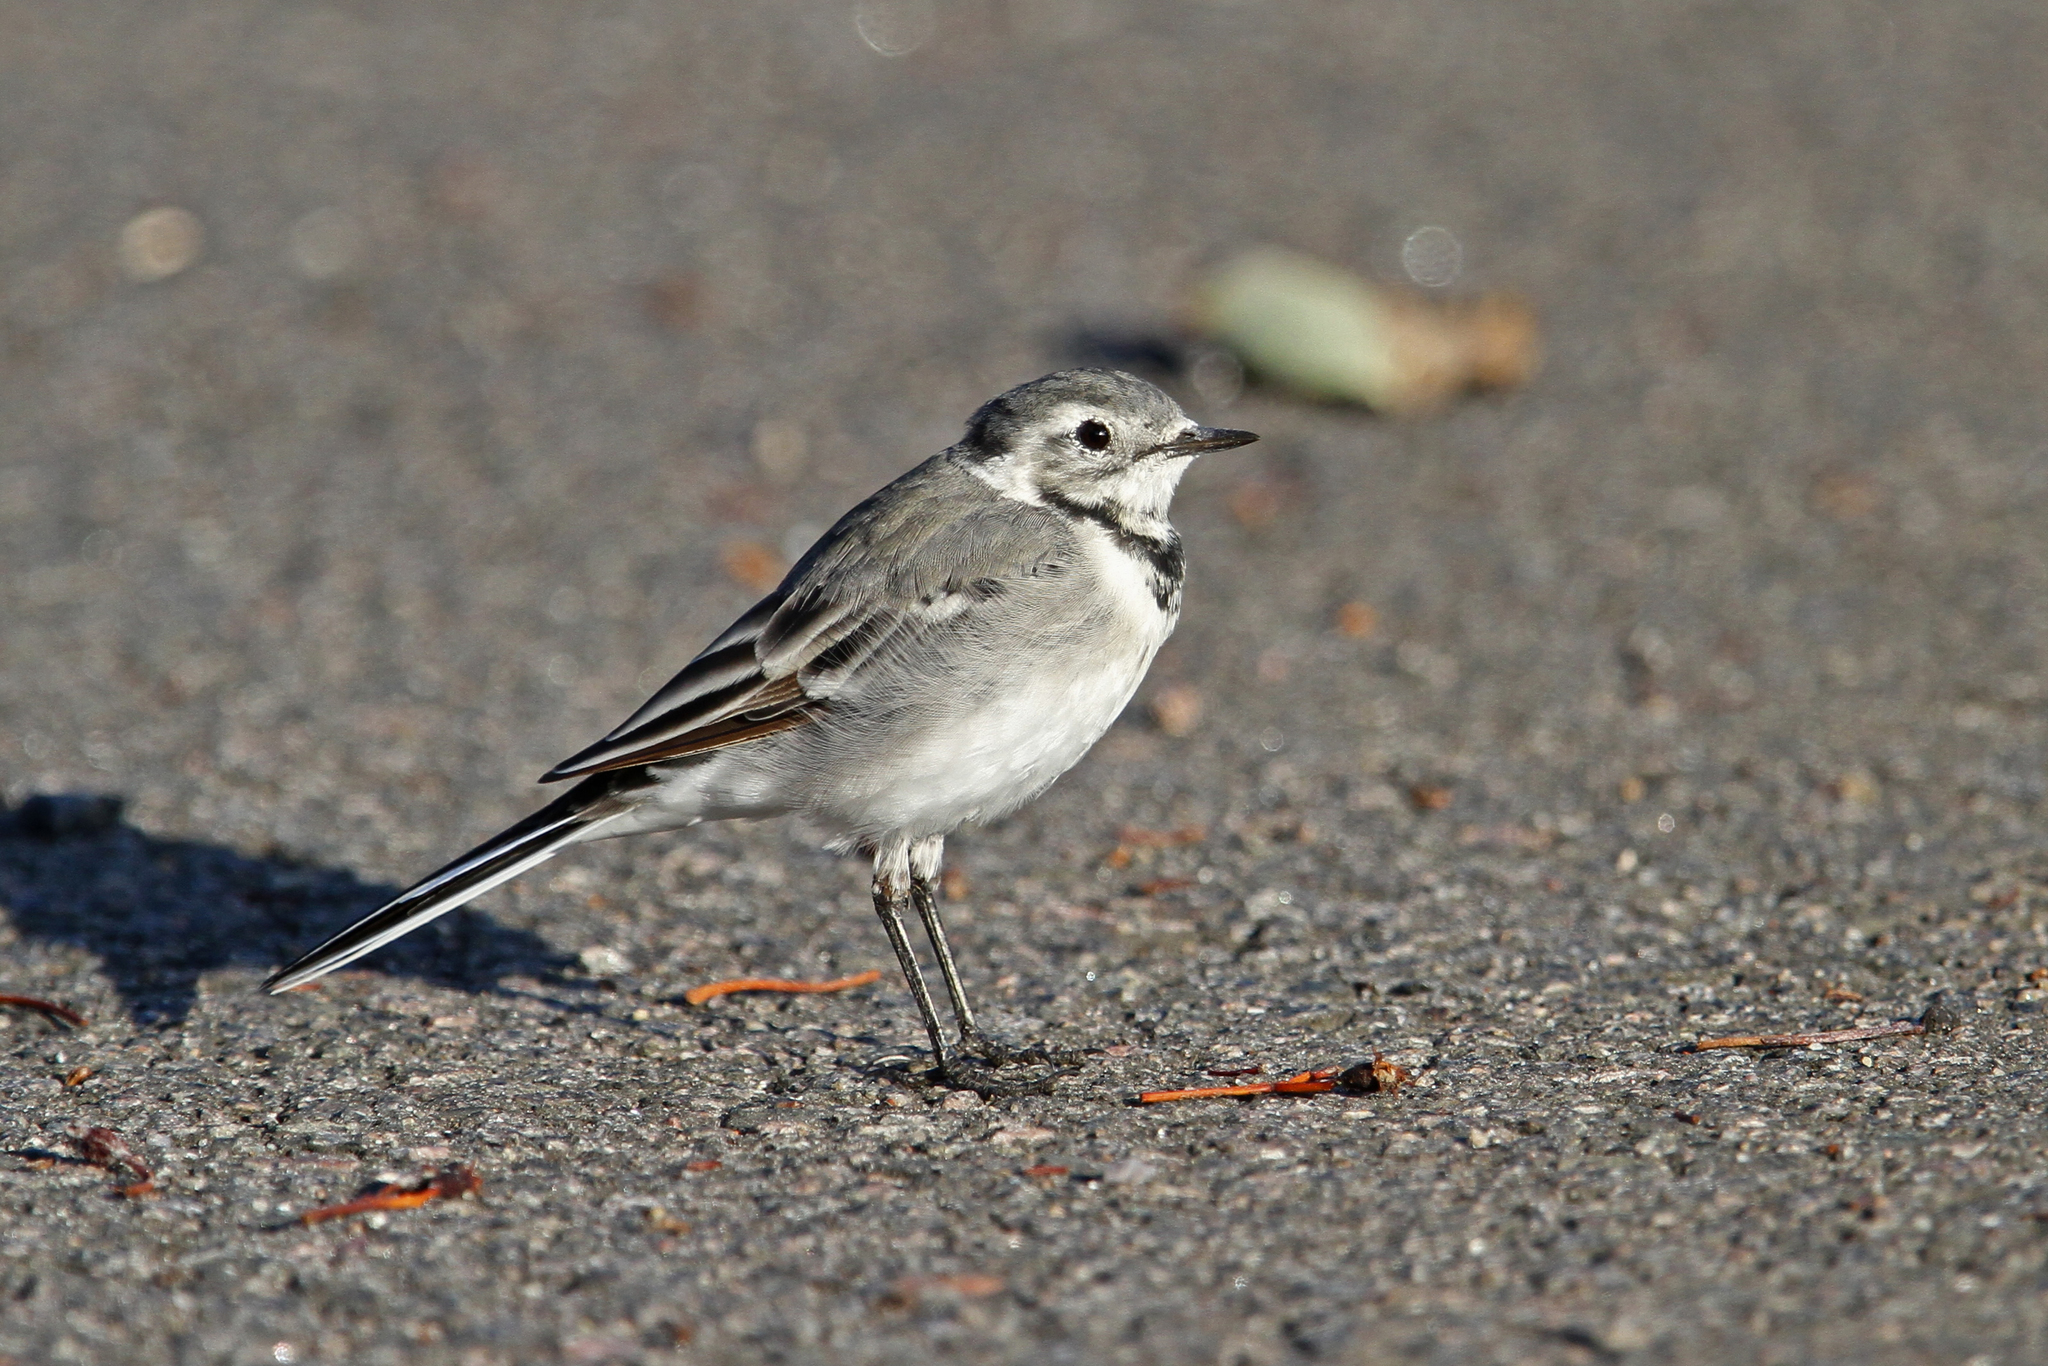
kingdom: Animalia
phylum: Chordata
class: Aves
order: Passeriformes
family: Motacillidae
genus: Motacilla
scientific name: Motacilla alba
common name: White wagtail
